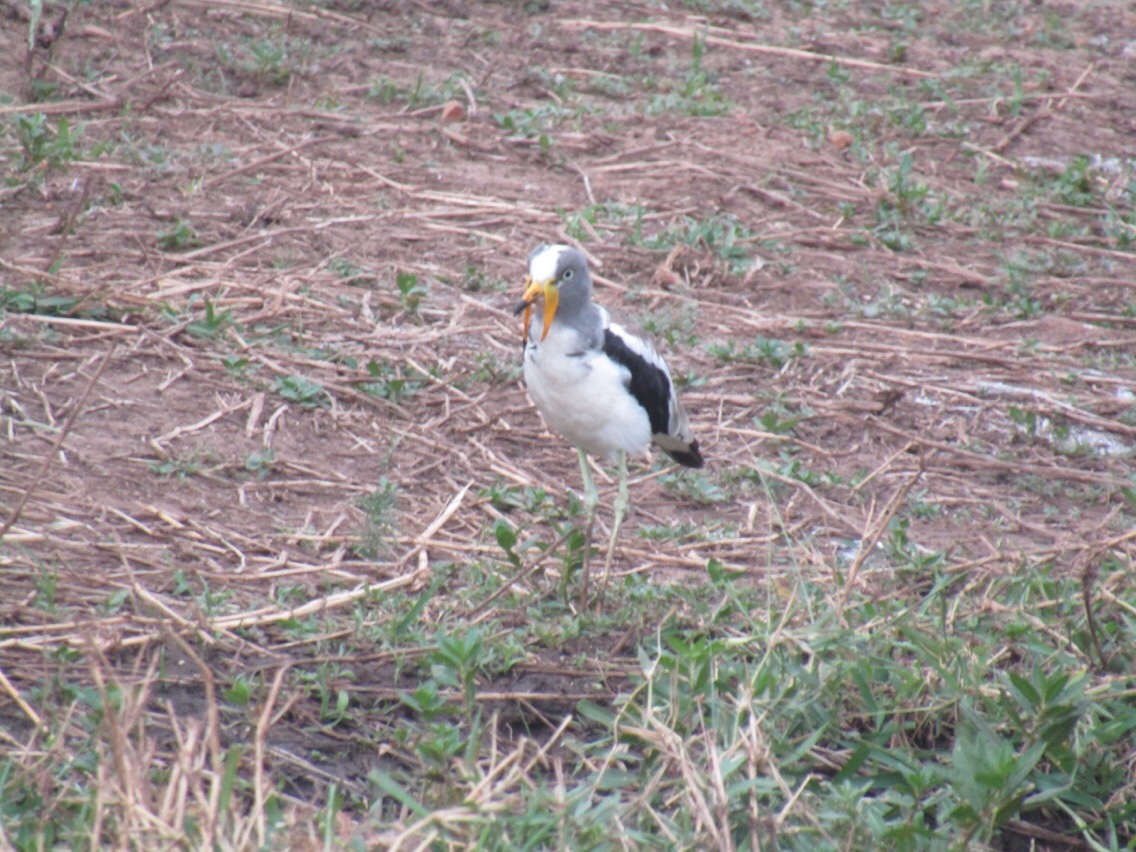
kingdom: Animalia
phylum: Chordata
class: Aves
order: Charadriiformes
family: Charadriidae
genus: Vanellus
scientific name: Vanellus albiceps
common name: White-crowned lapwing
